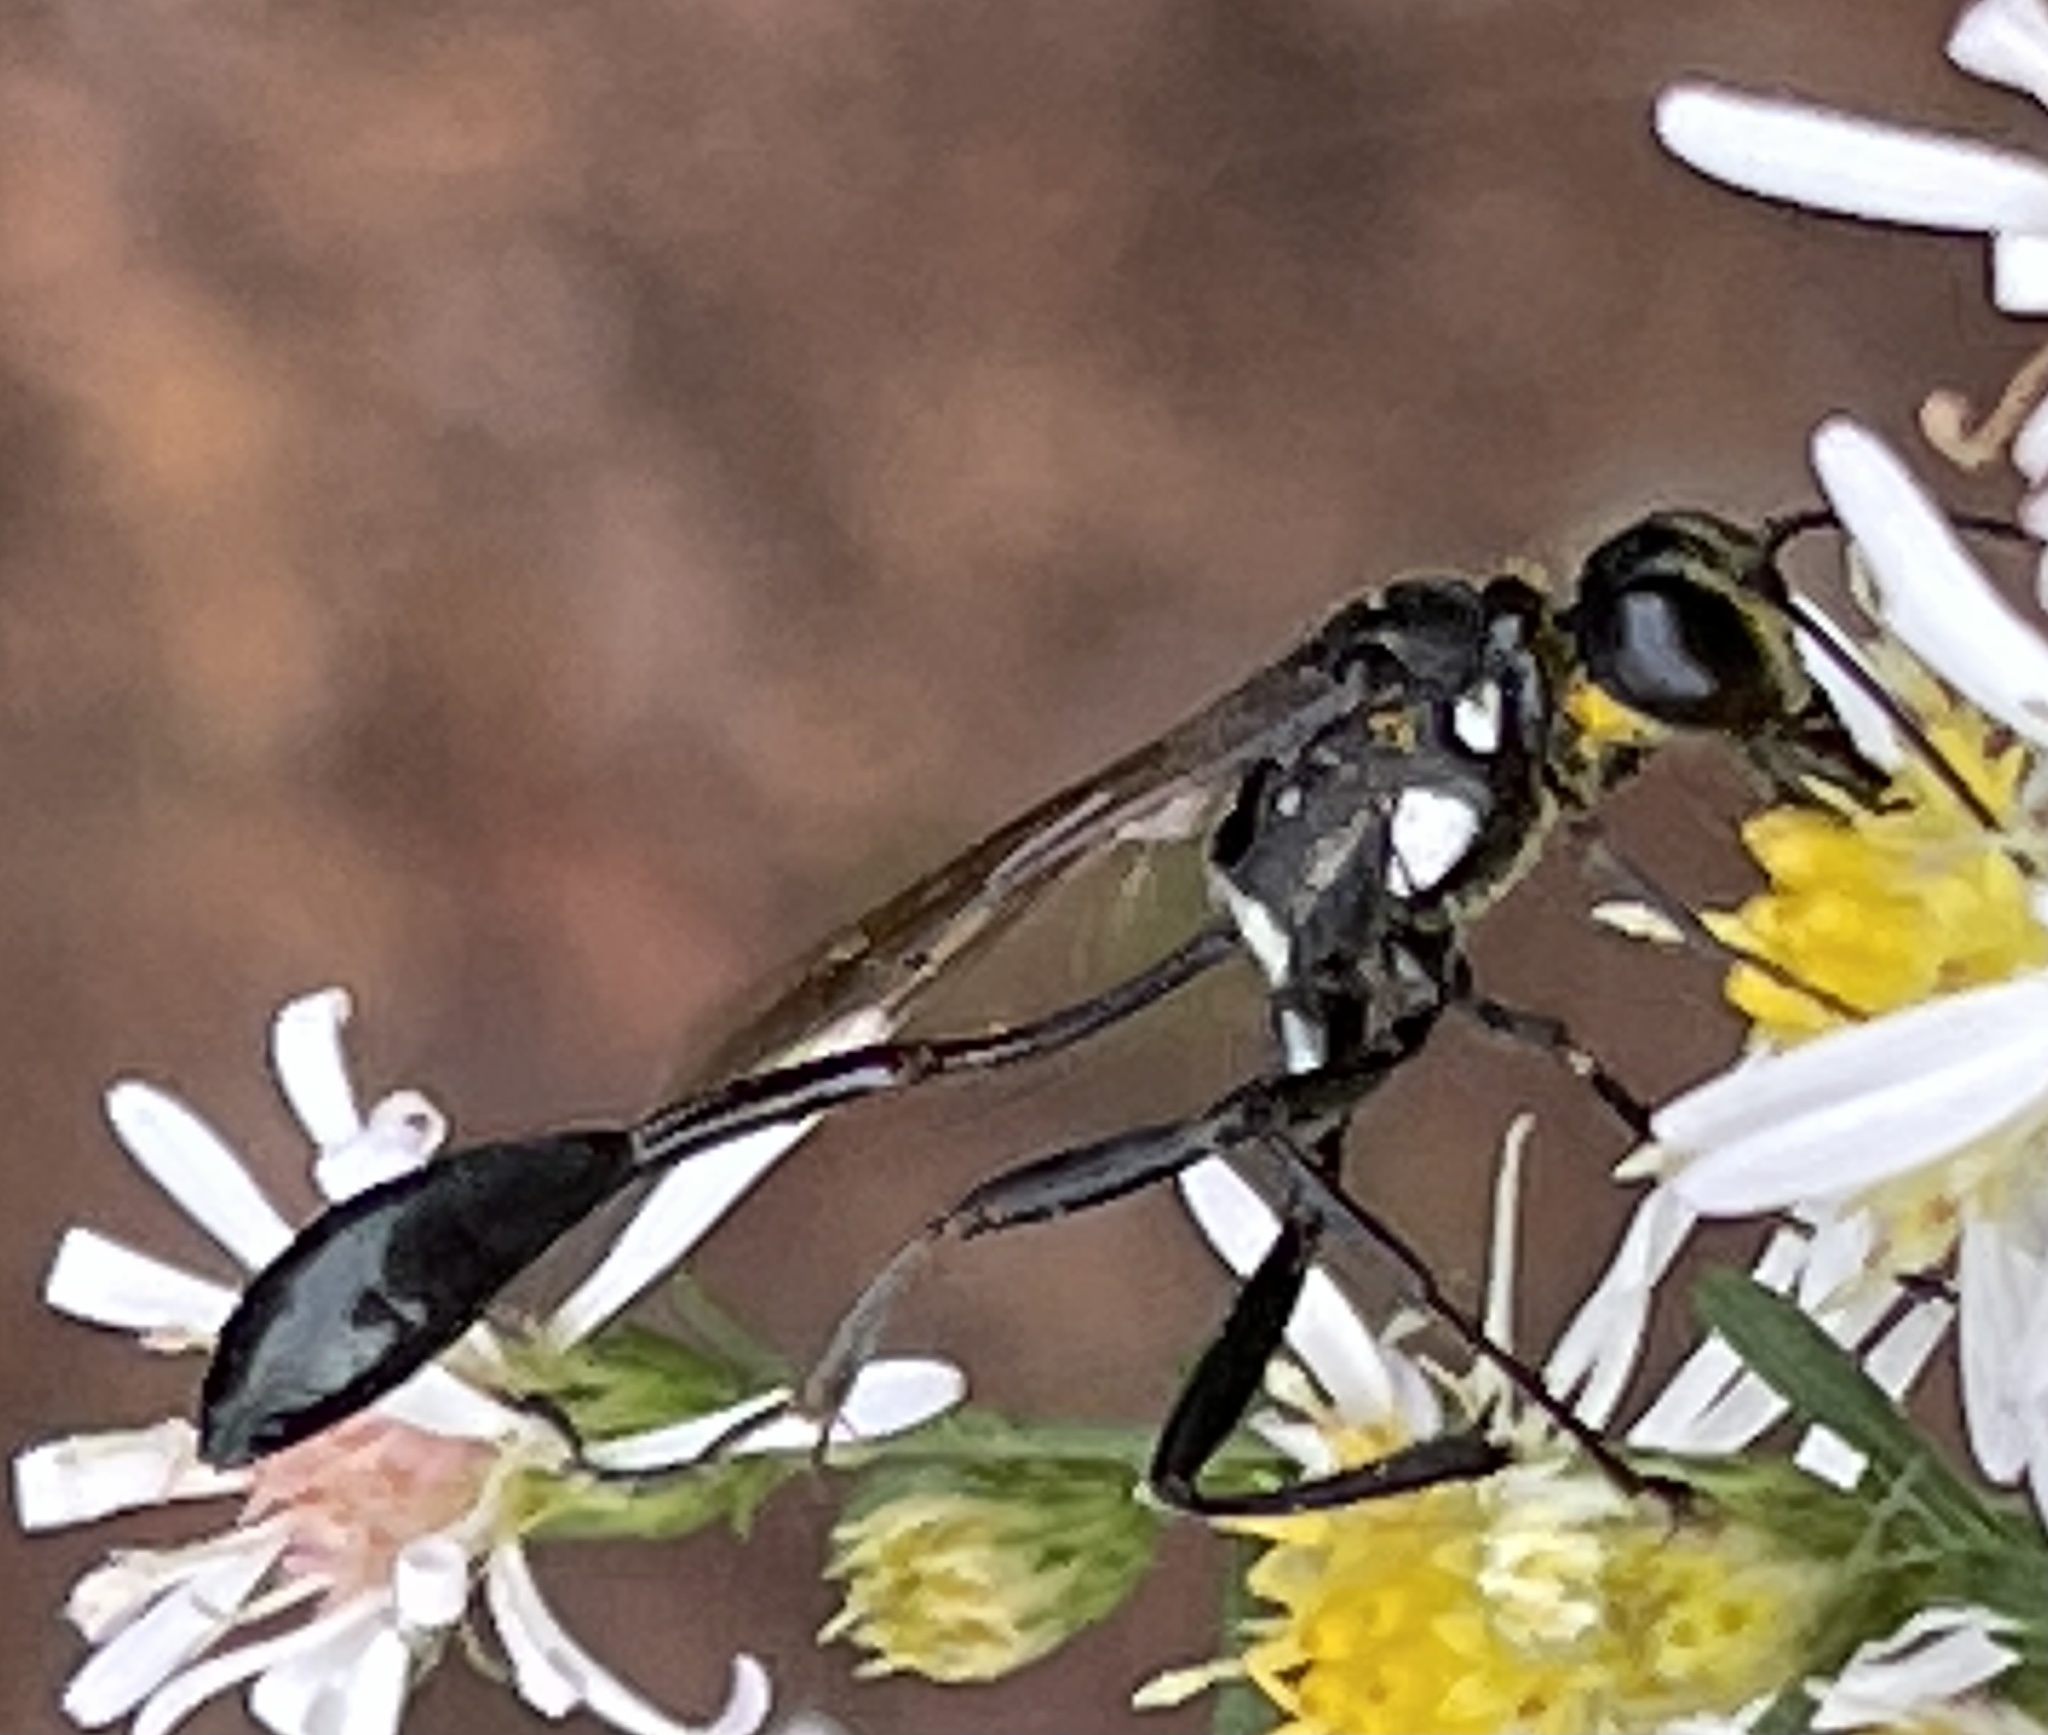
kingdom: Animalia
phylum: Arthropoda
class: Insecta
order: Hymenoptera
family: Sphecidae
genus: Eremnophila
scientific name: Eremnophila aureonotata
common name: Gold-marked thread-waisted wasp
